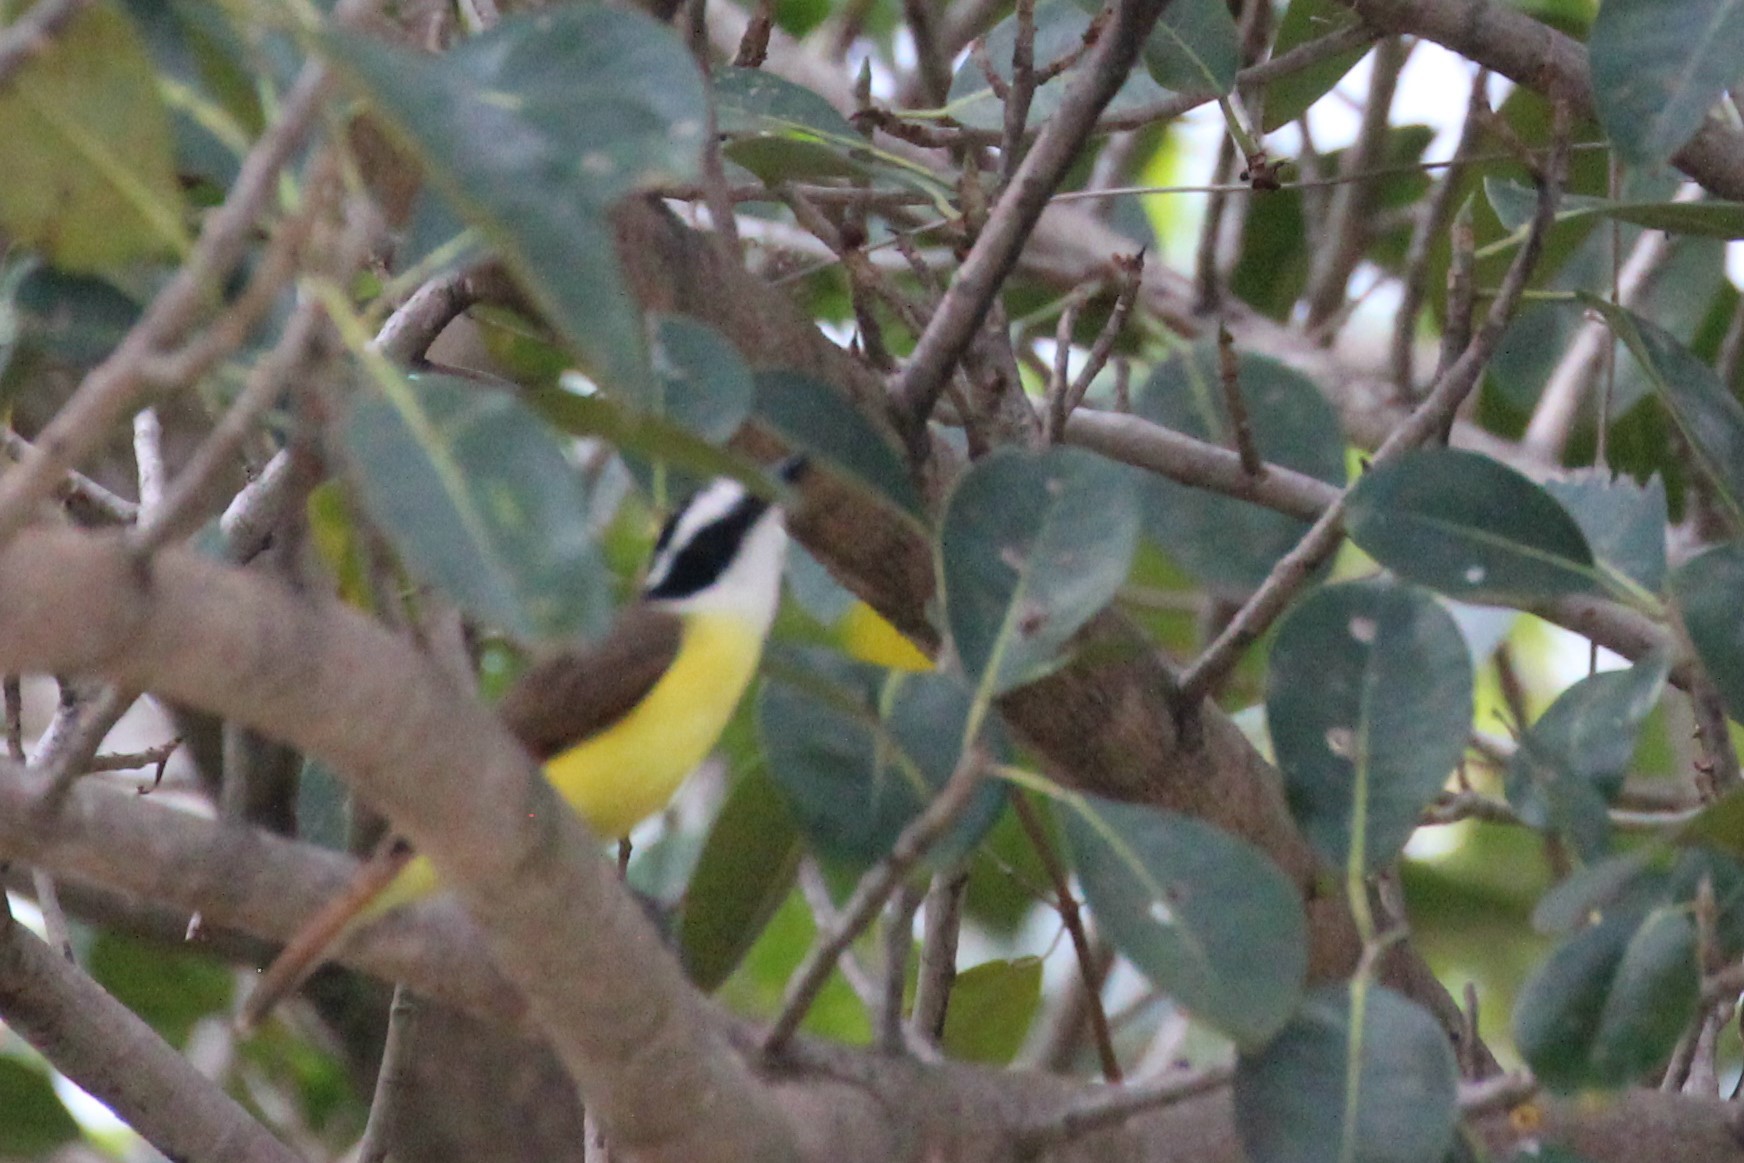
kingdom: Animalia
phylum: Chordata
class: Aves
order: Passeriformes
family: Tyrannidae
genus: Pitangus
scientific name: Pitangus sulphuratus
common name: Great kiskadee
